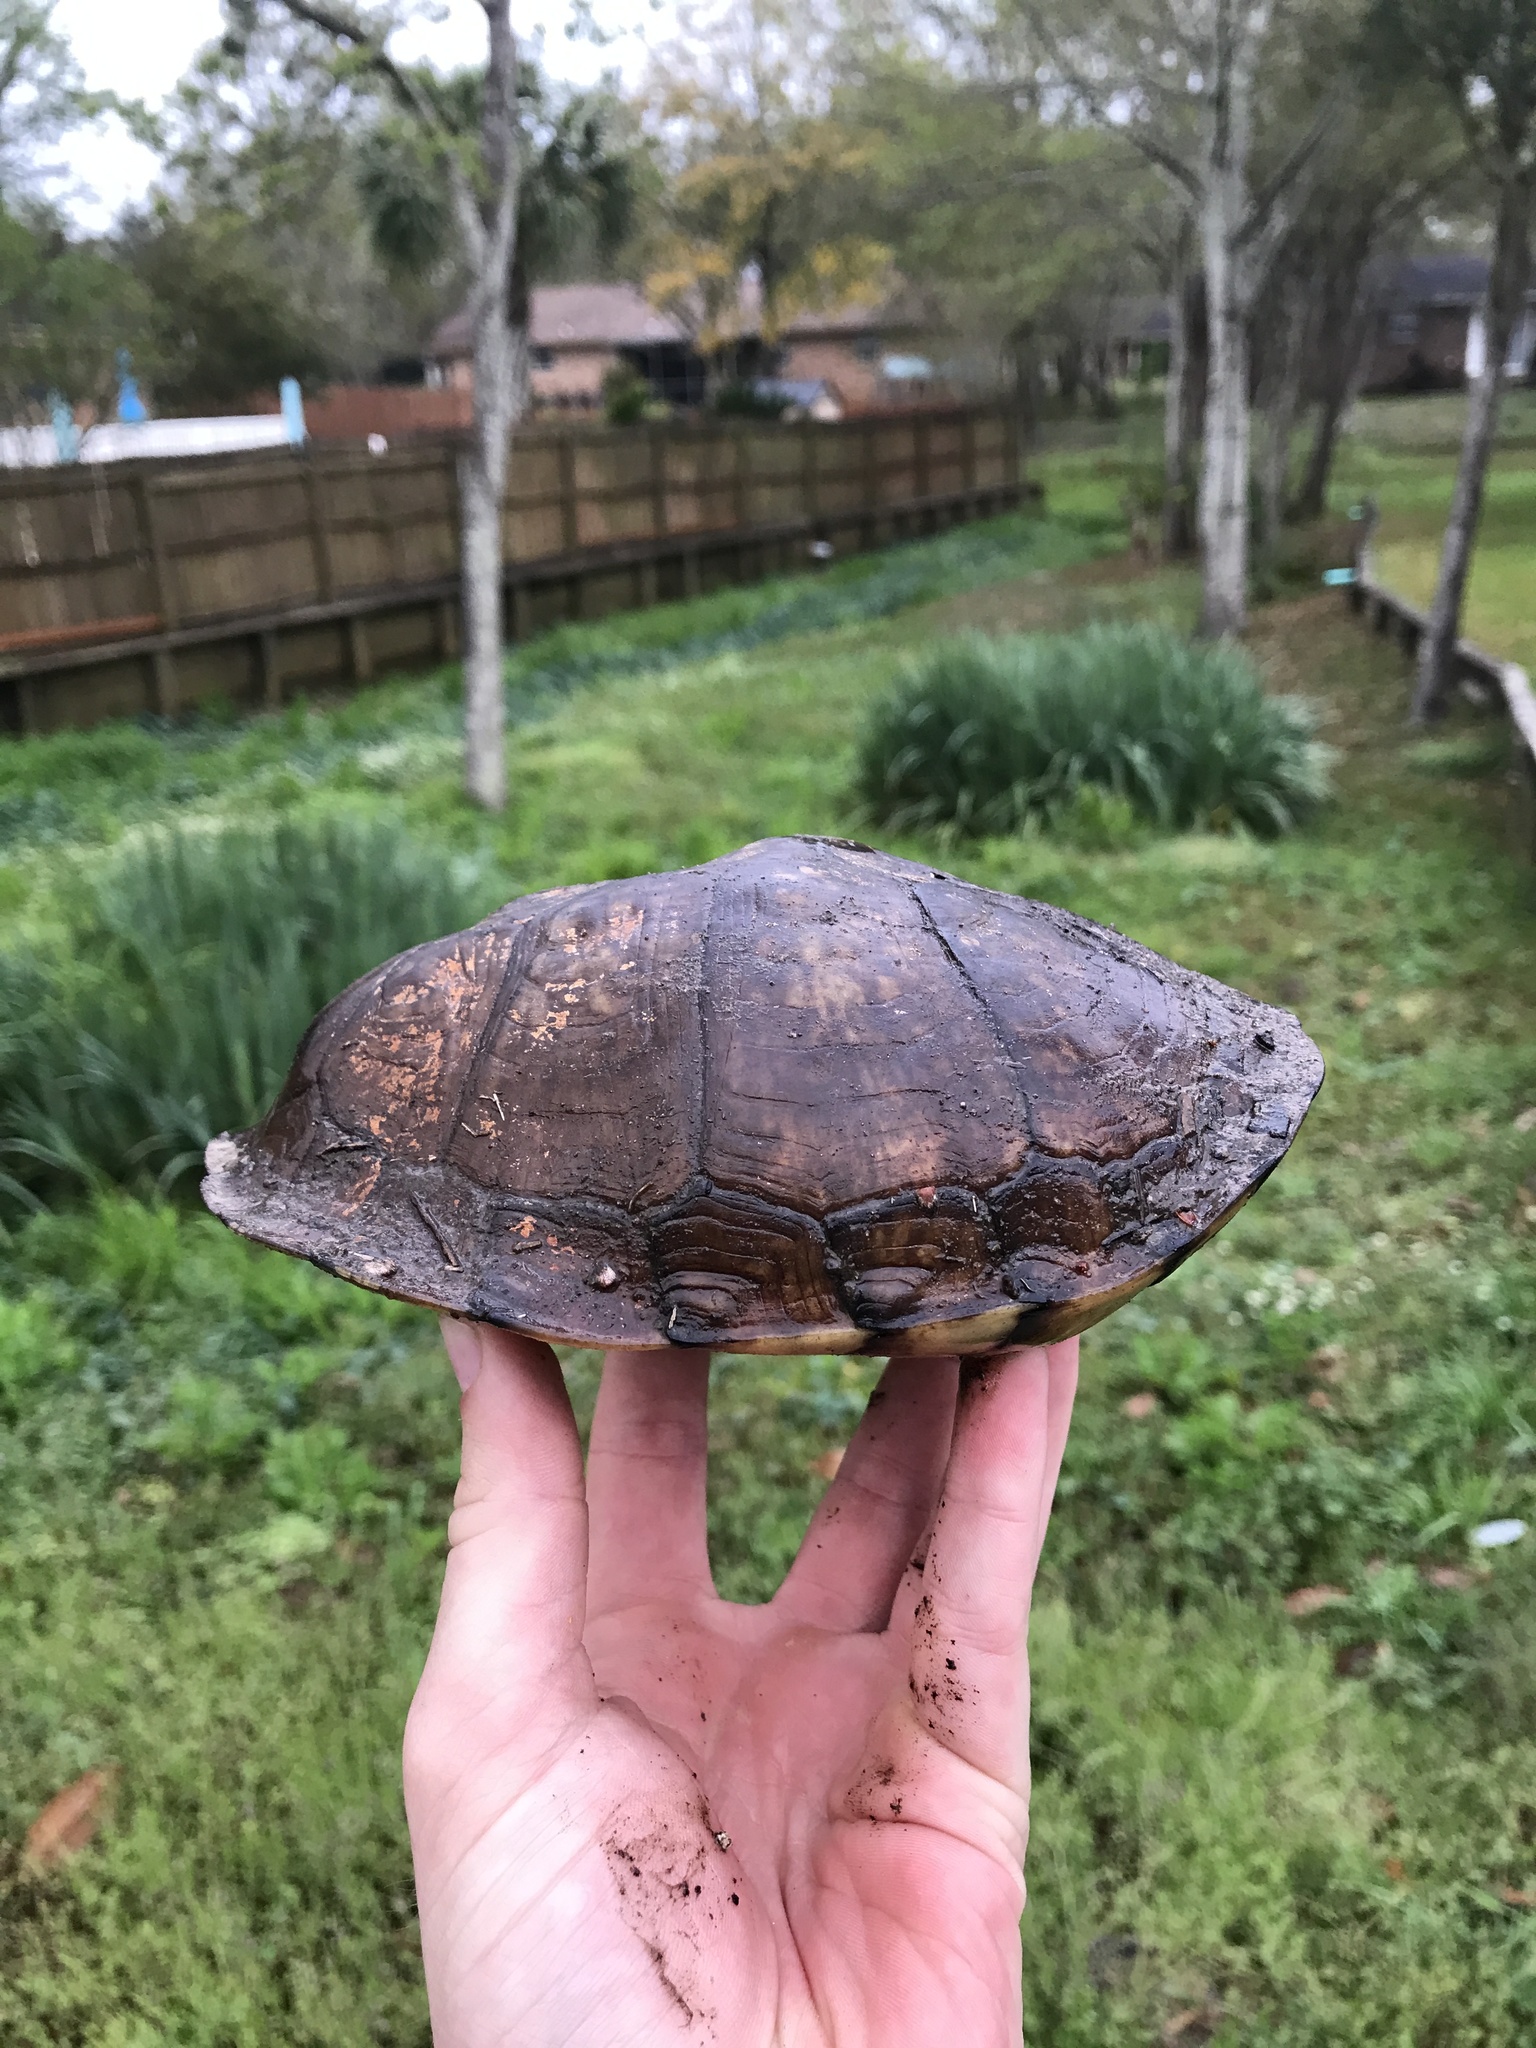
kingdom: Animalia
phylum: Chordata
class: Testudines
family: Emydidae
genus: Terrapene
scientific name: Terrapene carolina
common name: Common box turtle
